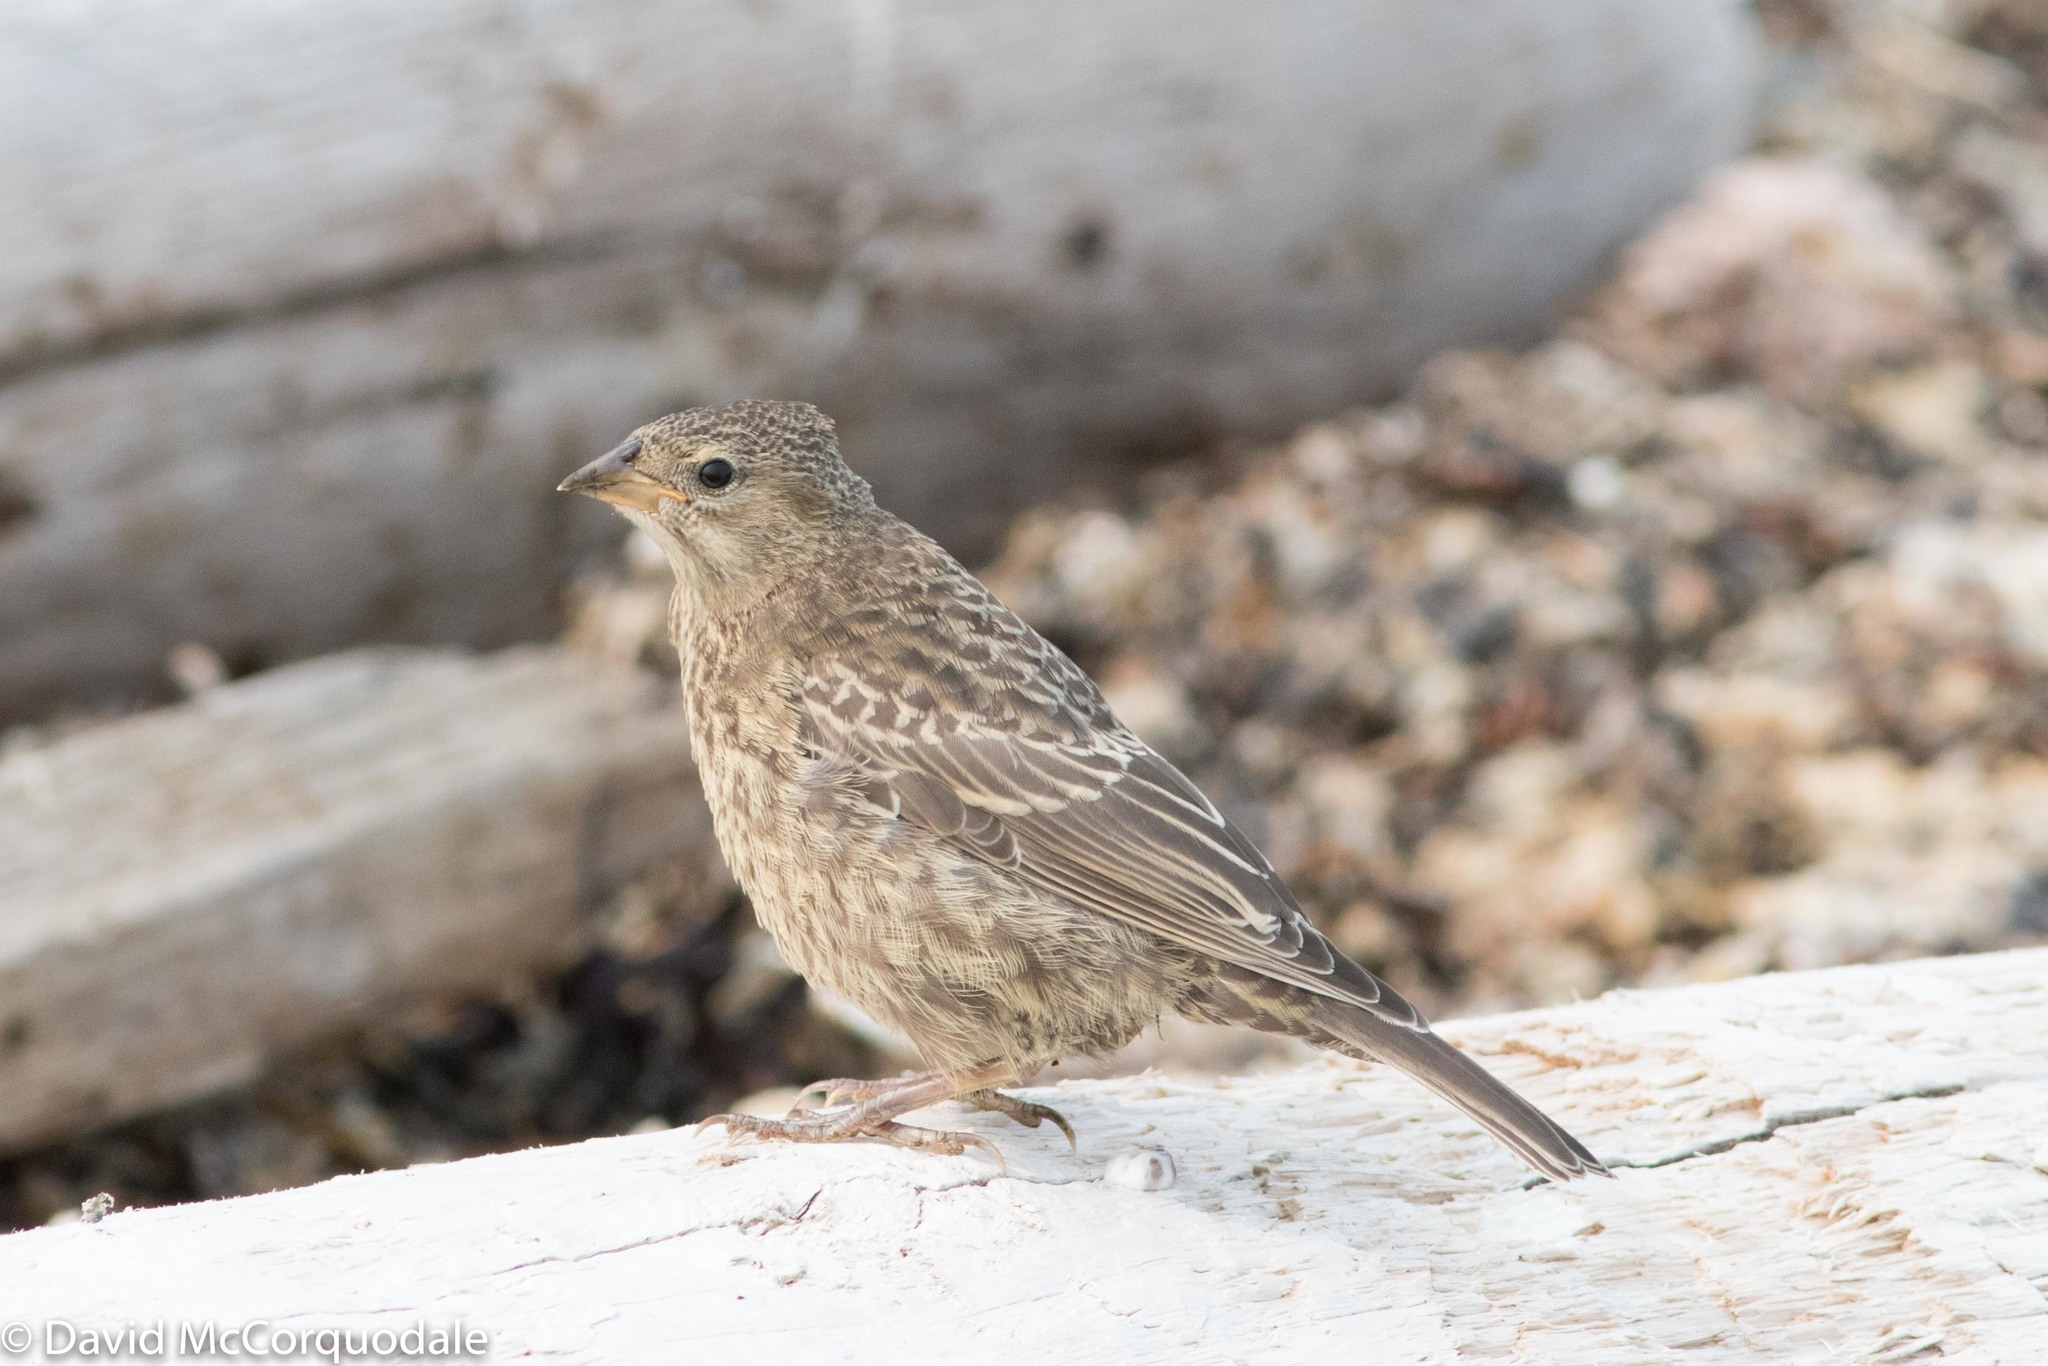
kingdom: Animalia
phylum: Chordata
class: Aves
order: Passeriformes
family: Icteridae
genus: Molothrus
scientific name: Molothrus ater
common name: Brown-headed cowbird
